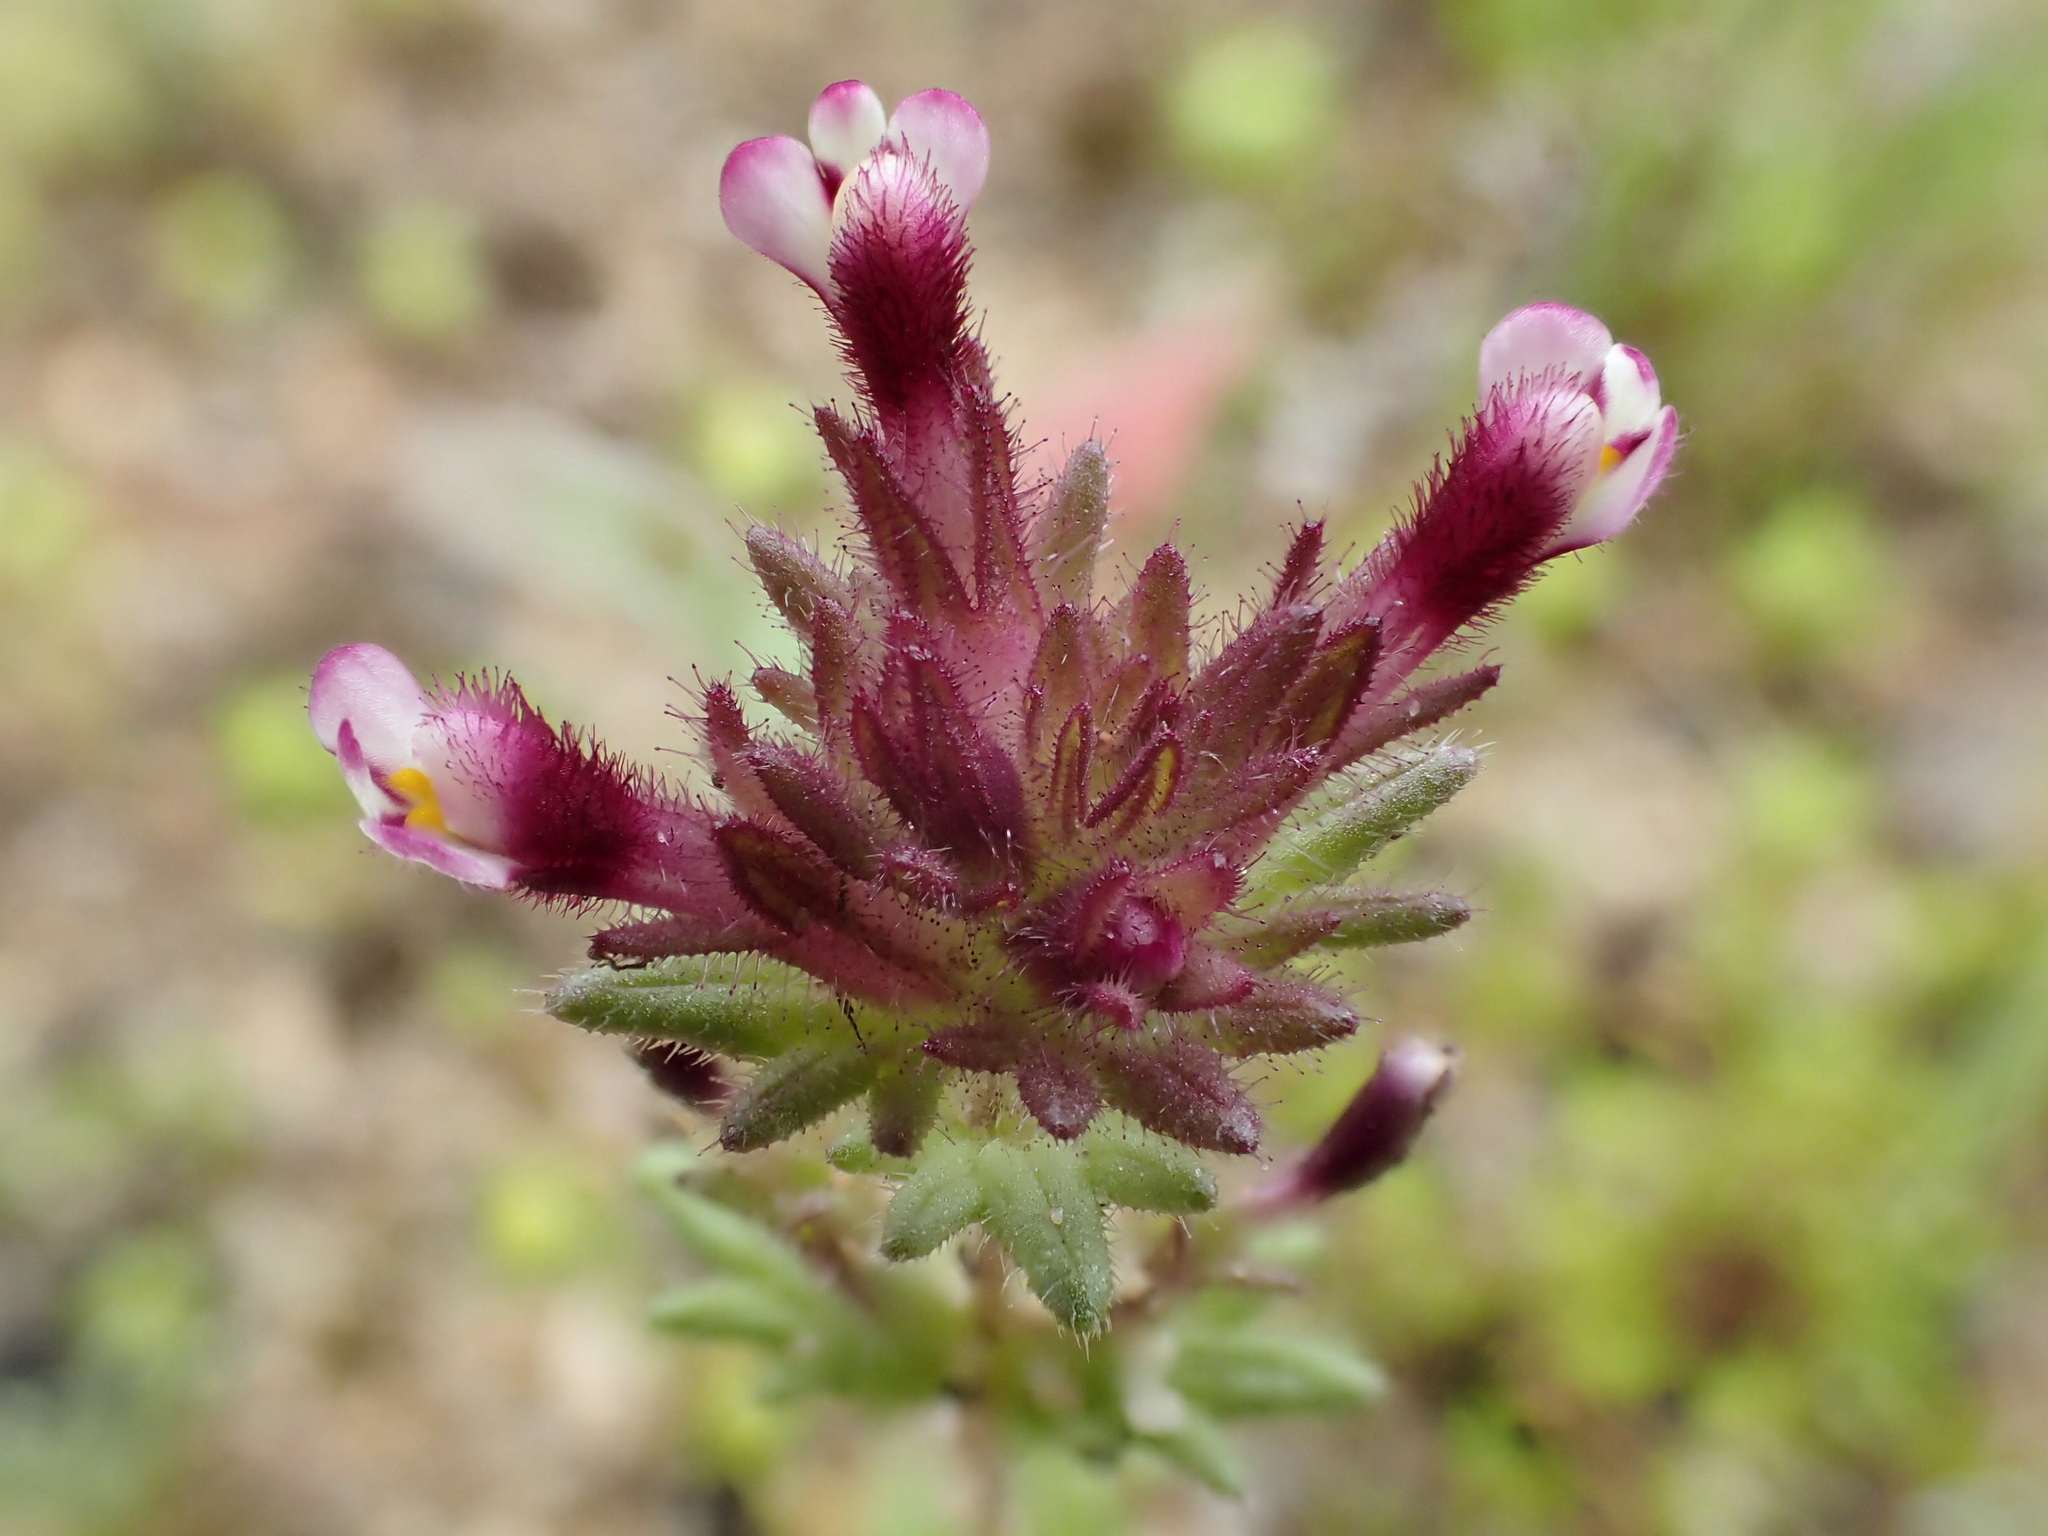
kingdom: Plantae
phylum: Tracheophyta
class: Magnoliopsida
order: Lamiales
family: Orobanchaceae
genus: Parentucellia
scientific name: Parentucellia latifolia
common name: Broadleaf glandweed
